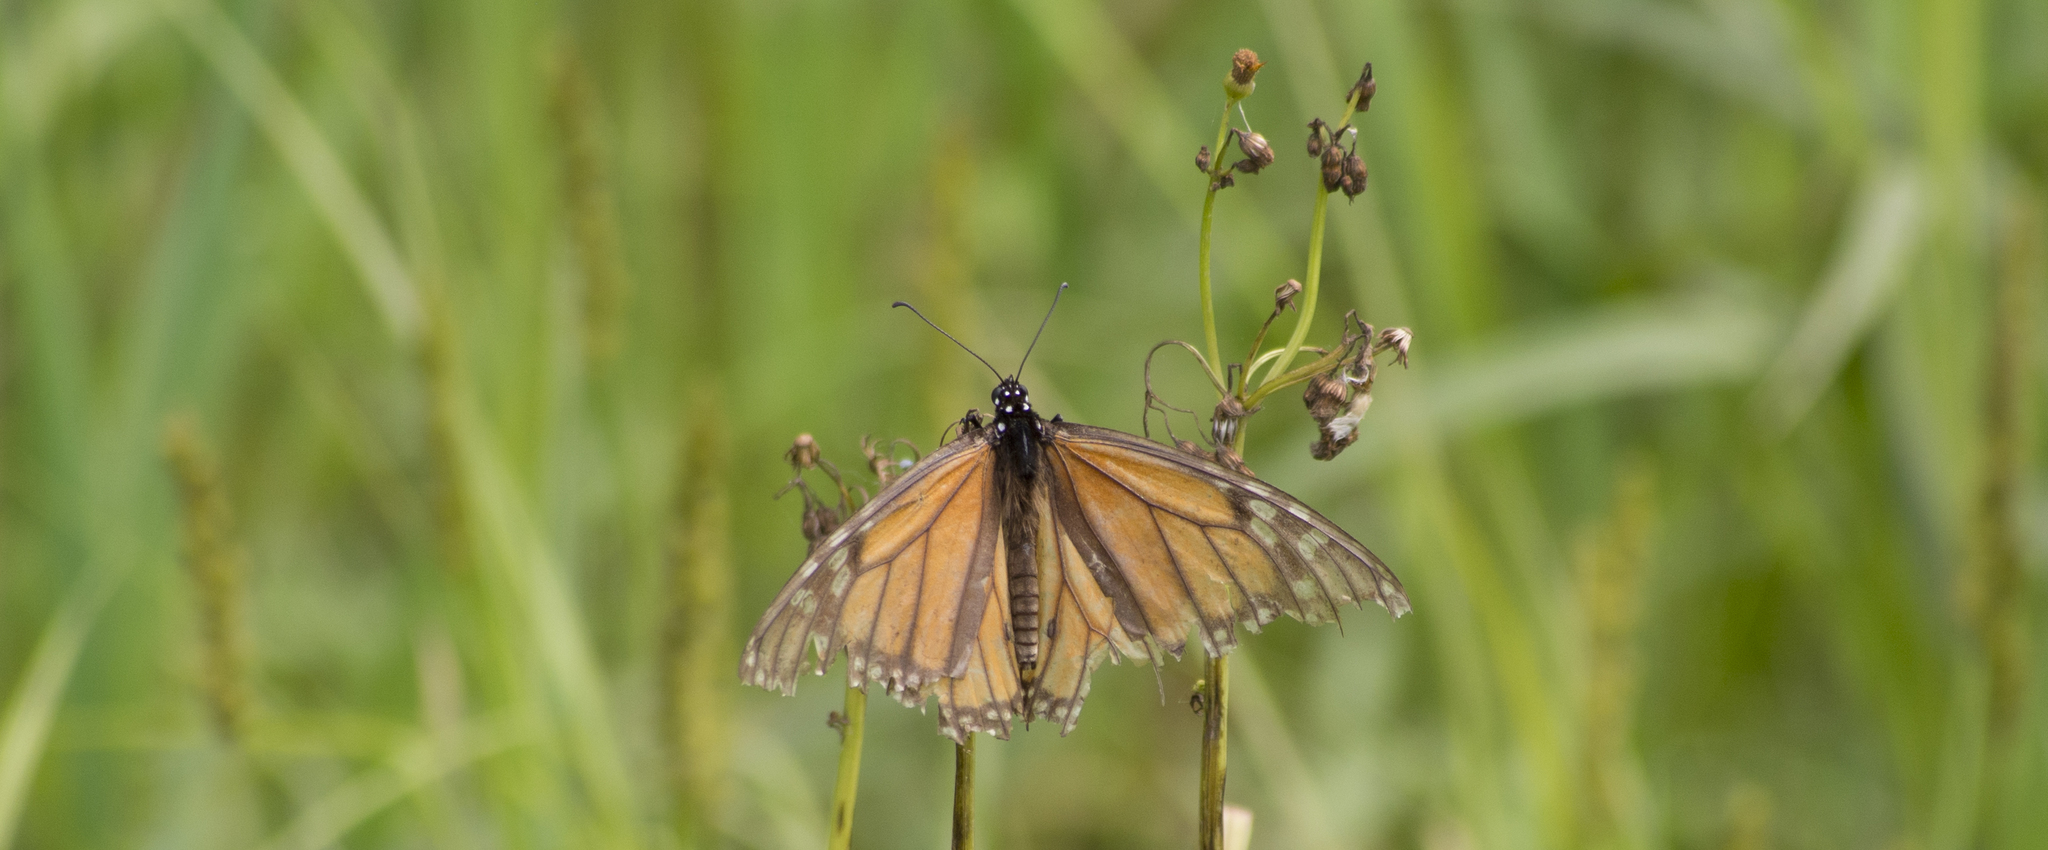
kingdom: Animalia
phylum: Arthropoda
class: Insecta
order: Lepidoptera
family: Nymphalidae
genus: Danaus
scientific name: Danaus plexippus
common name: Monarch
